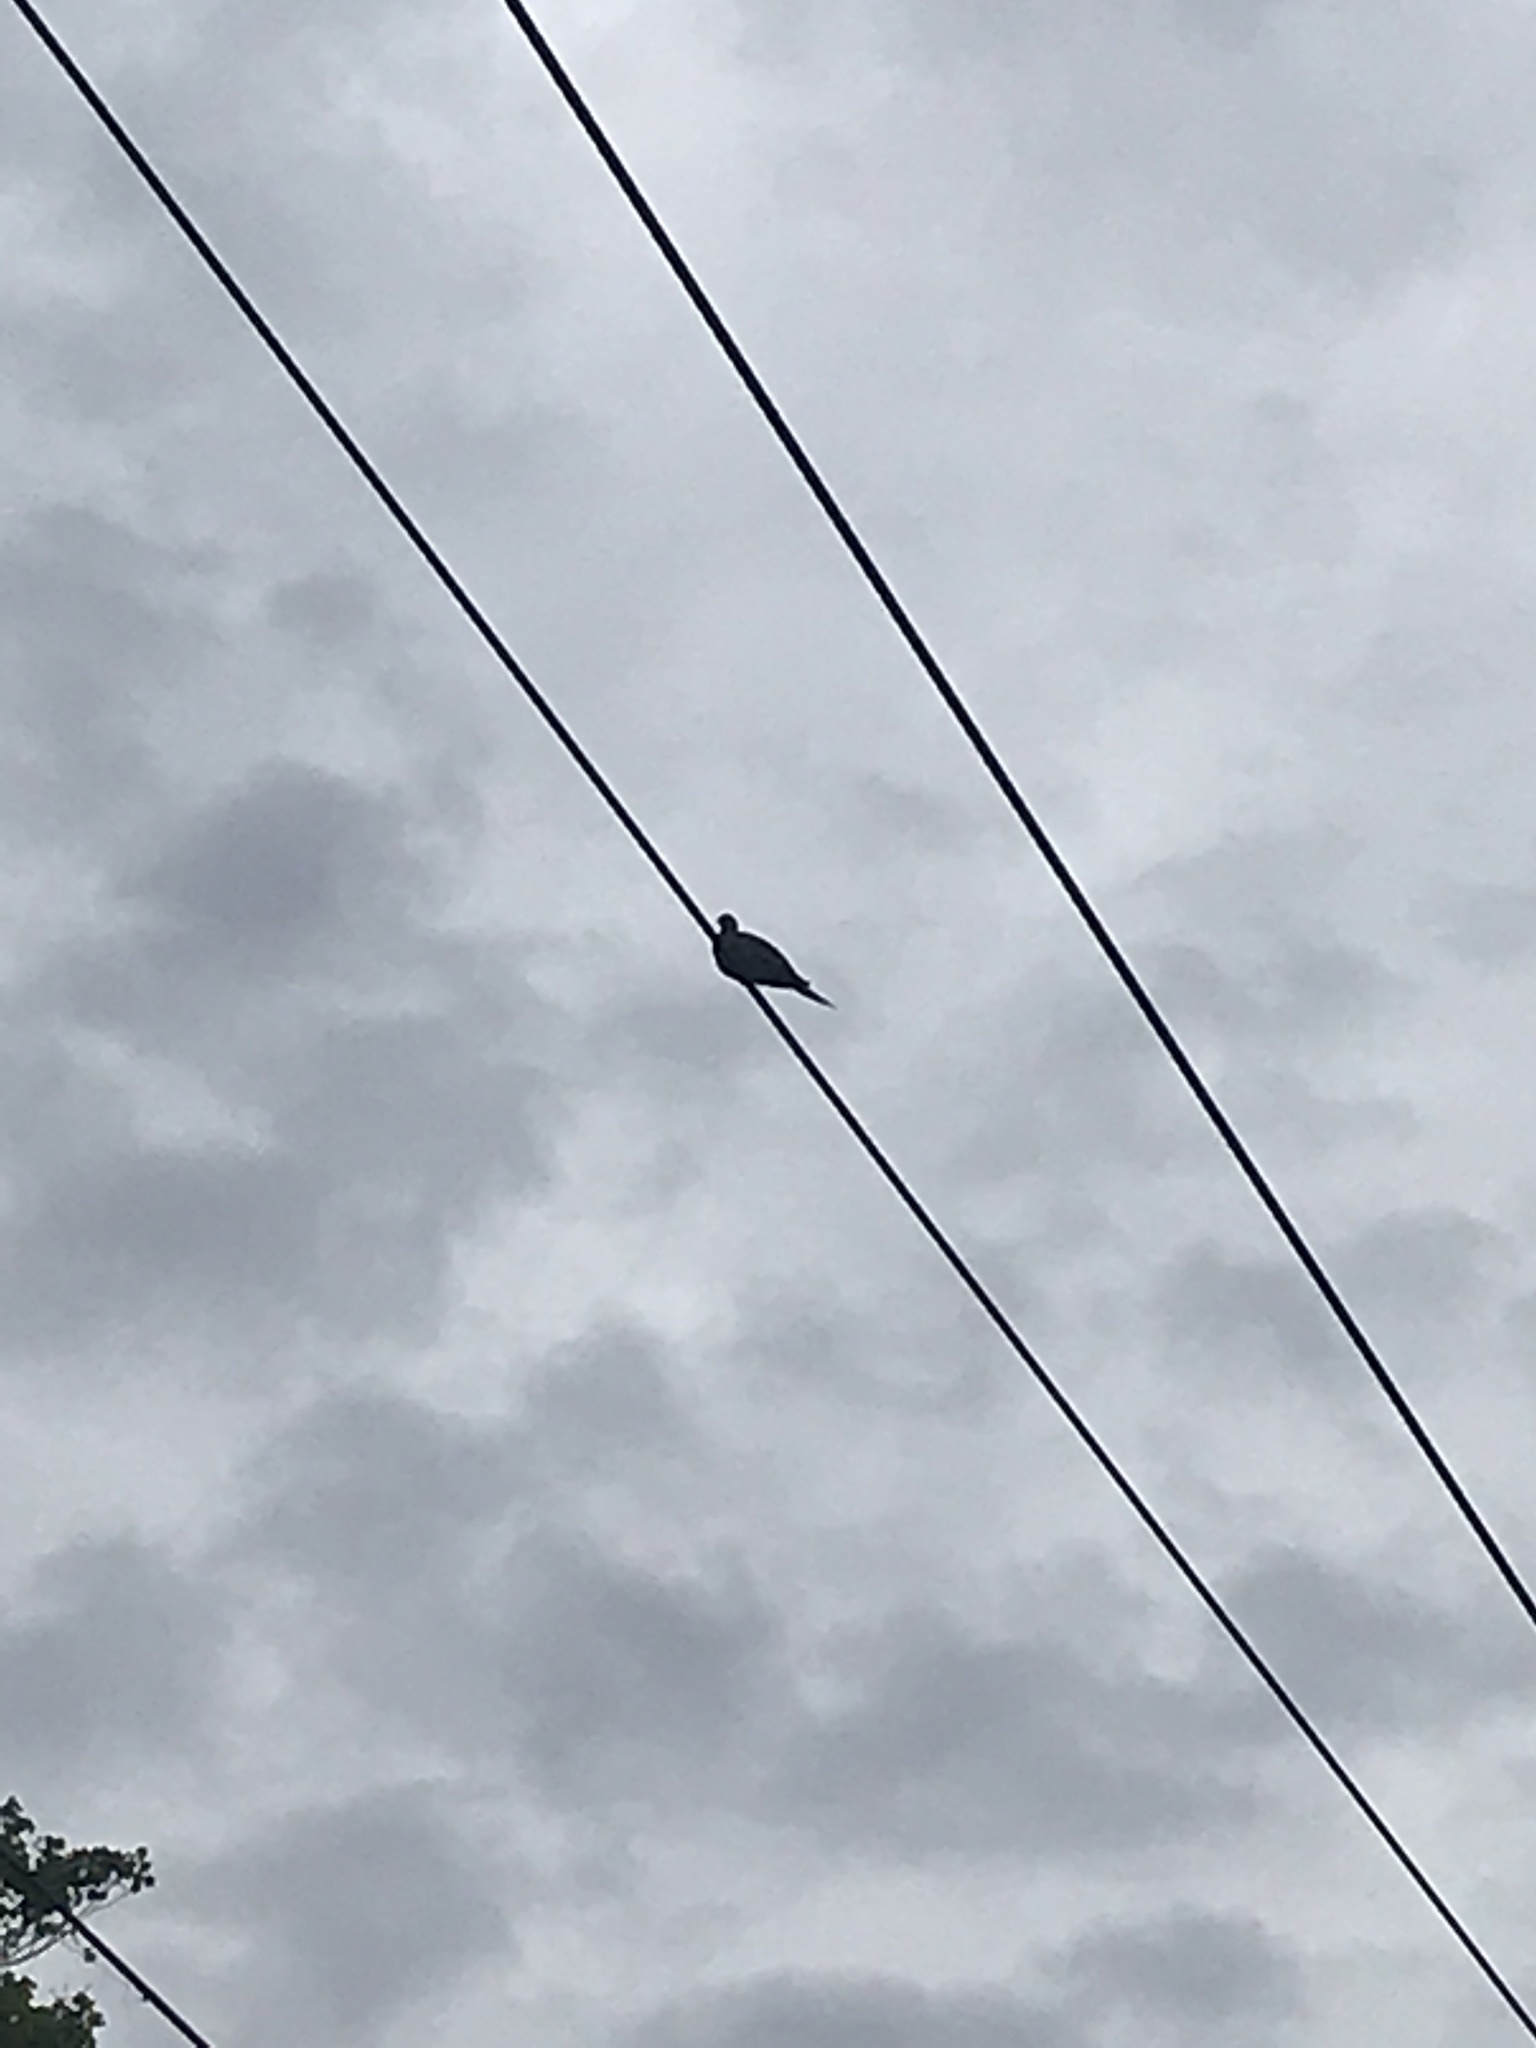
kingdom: Animalia
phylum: Chordata
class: Aves
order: Columbiformes
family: Columbidae
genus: Zenaida
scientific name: Zenaida macroura
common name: Mourning dove
